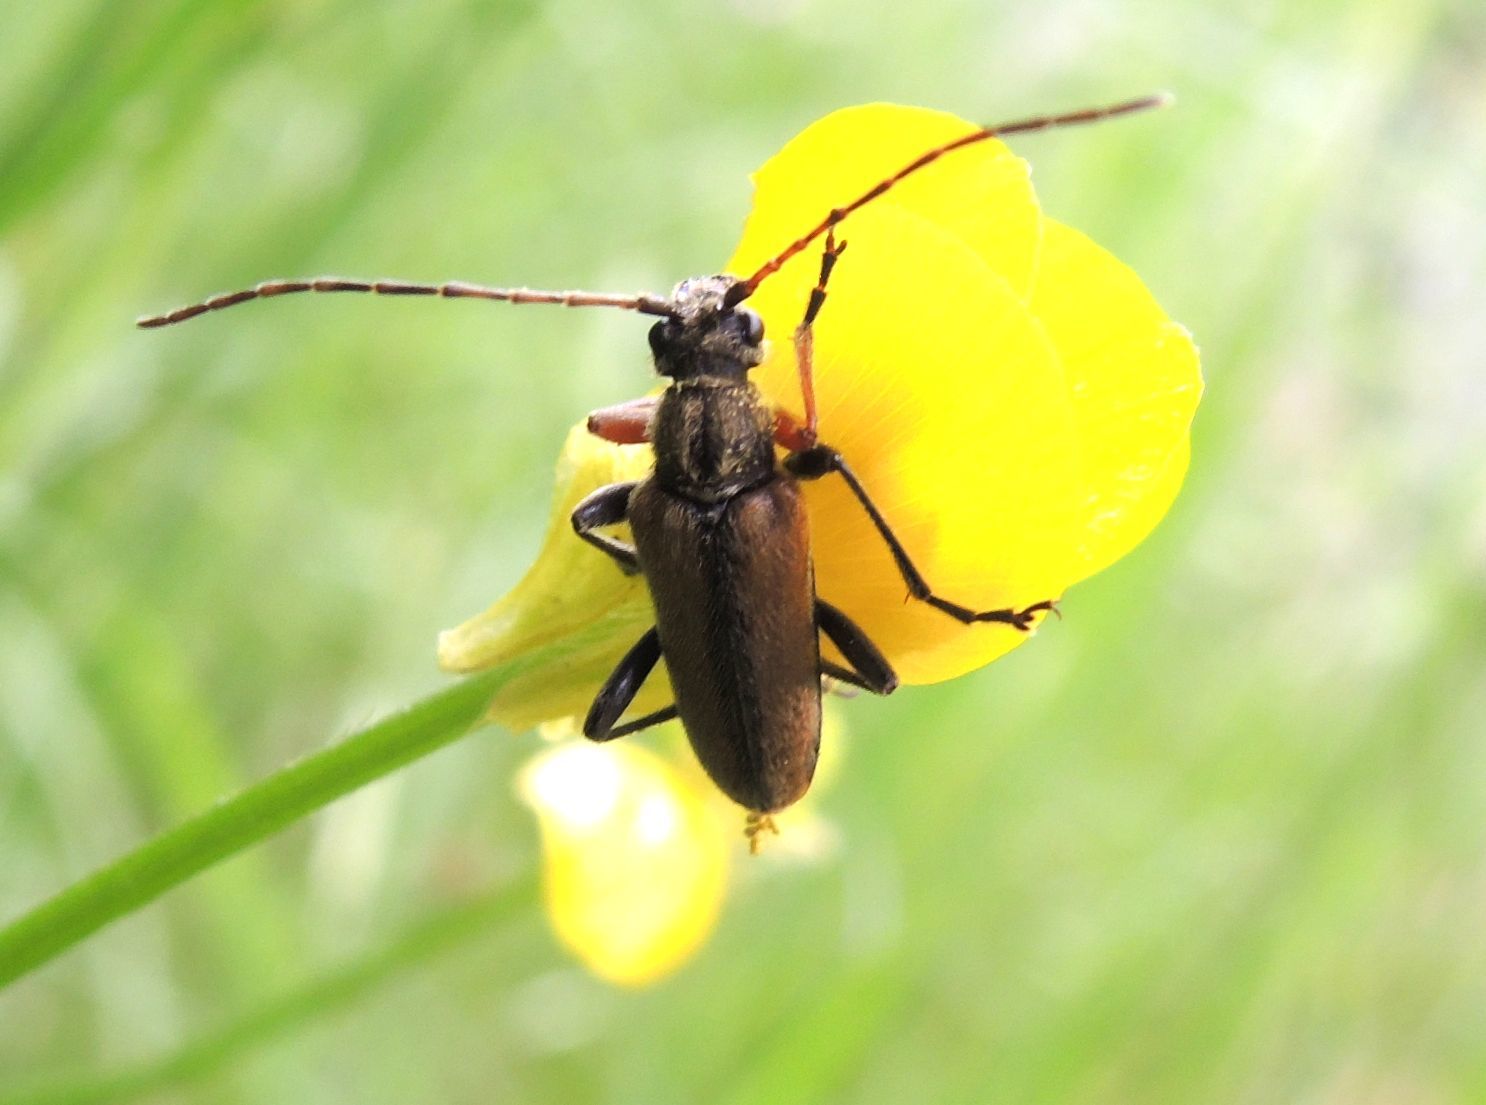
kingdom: Animalia
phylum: Arthropoda
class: Insecta
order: Coleoptera
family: Cerambycidae
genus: Cortodera
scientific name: Cortodera flavimana
